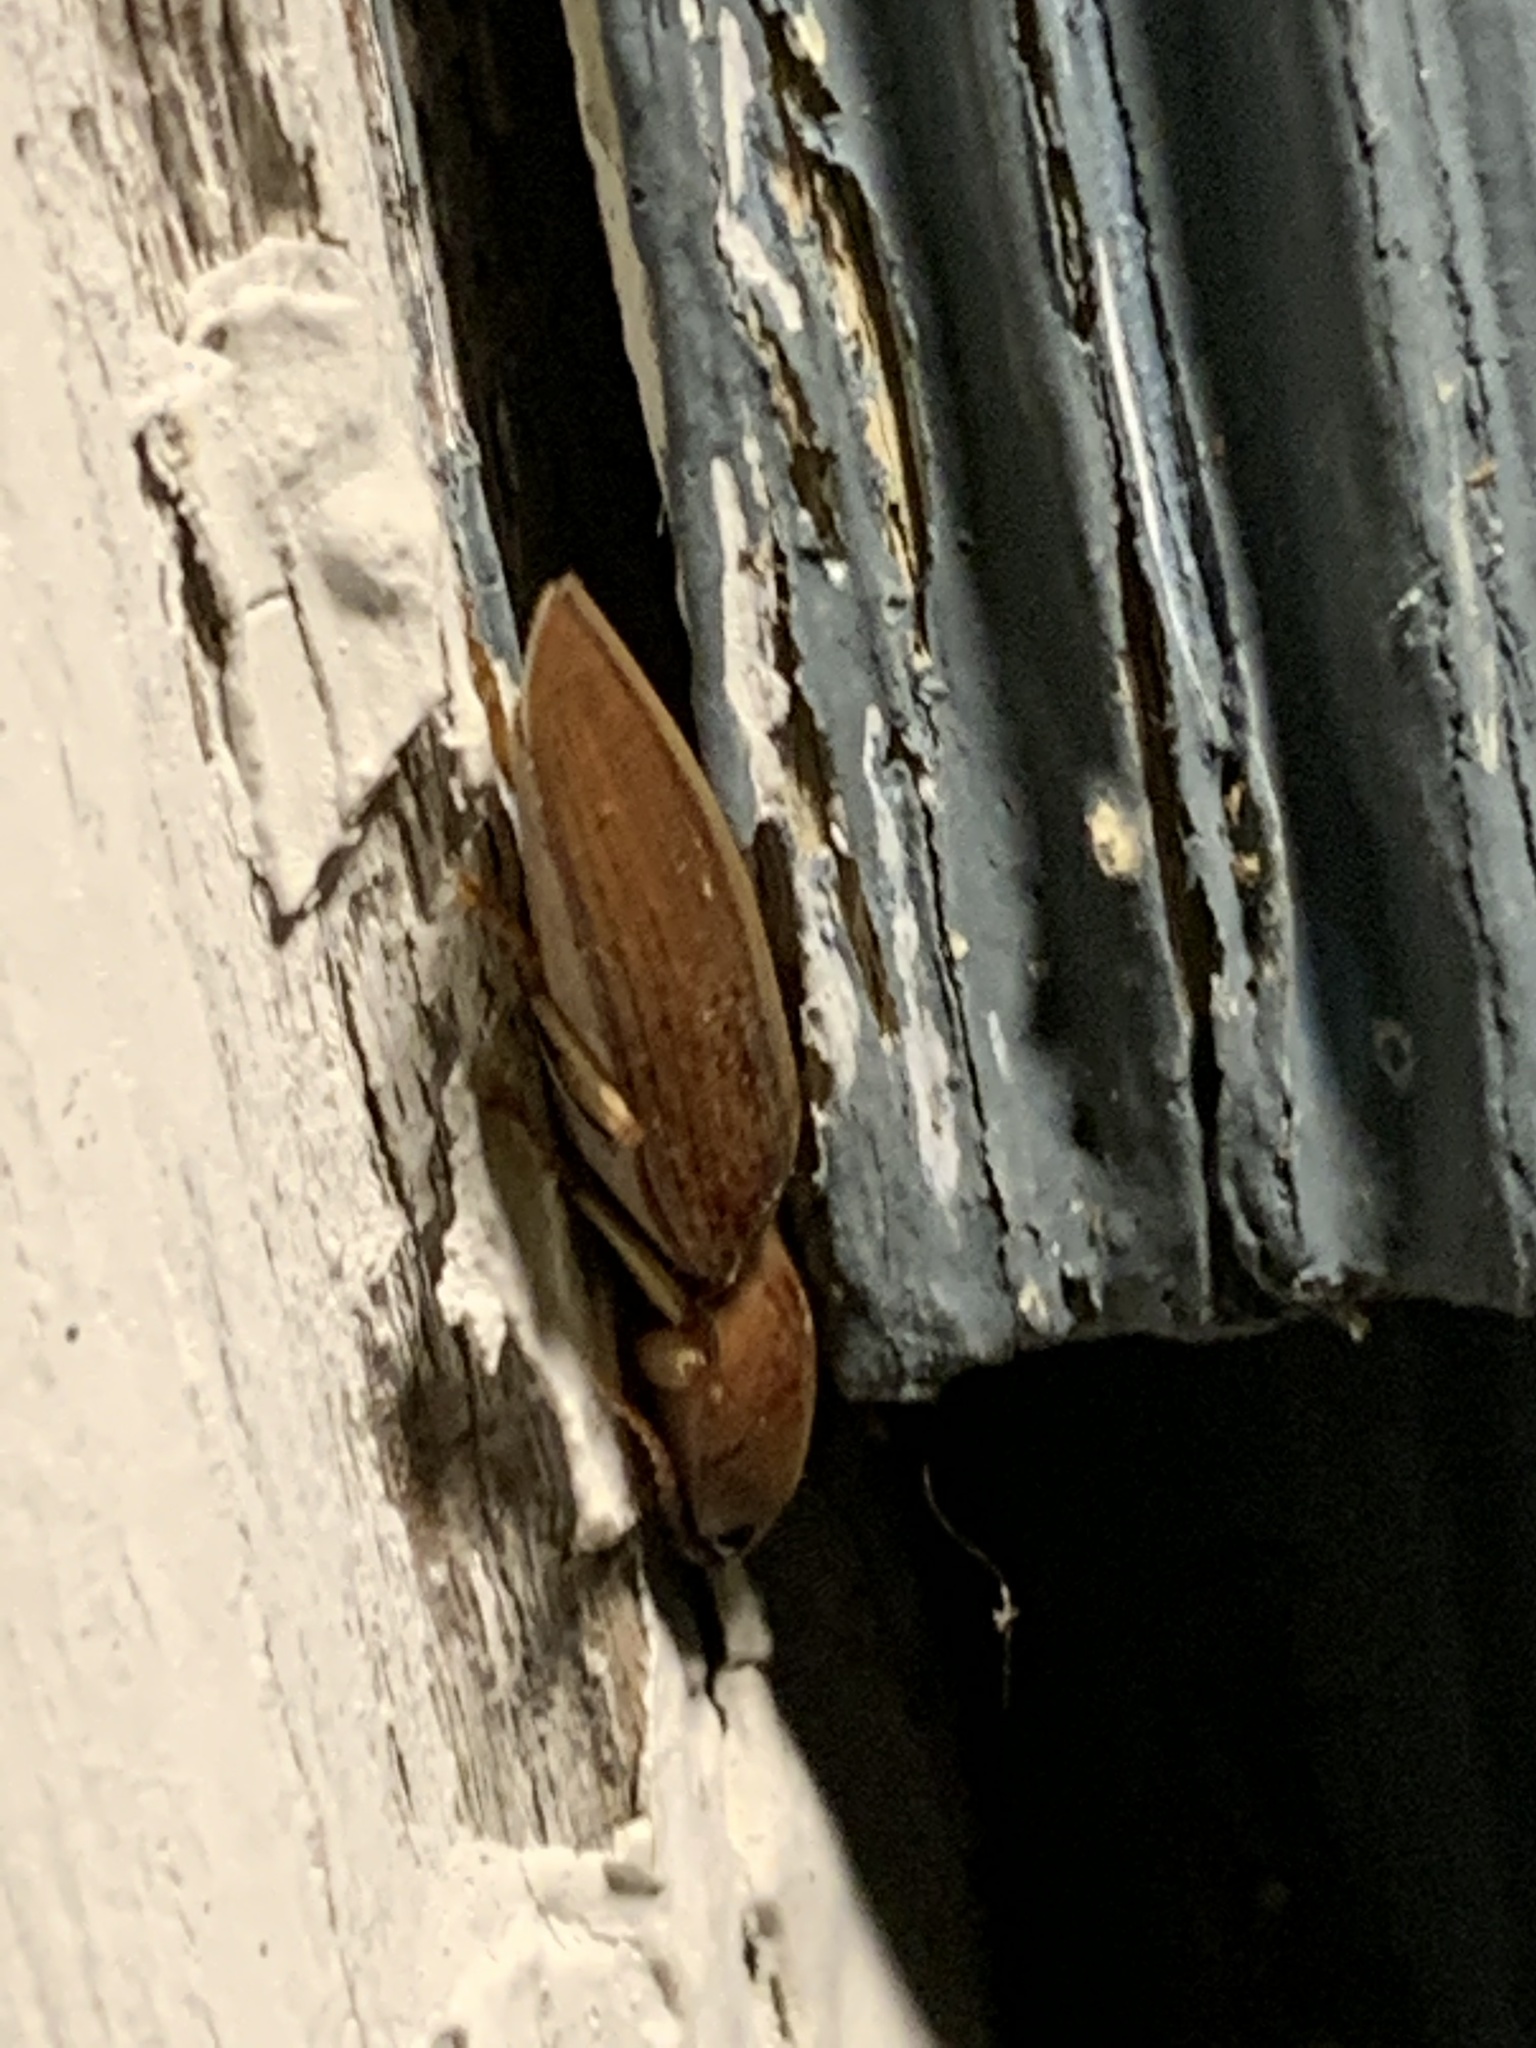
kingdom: Animalia
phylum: Arthropoda
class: Insecta
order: Coleoptera
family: Elateridae
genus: Monocrepidius
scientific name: Monocrepidius lividus
